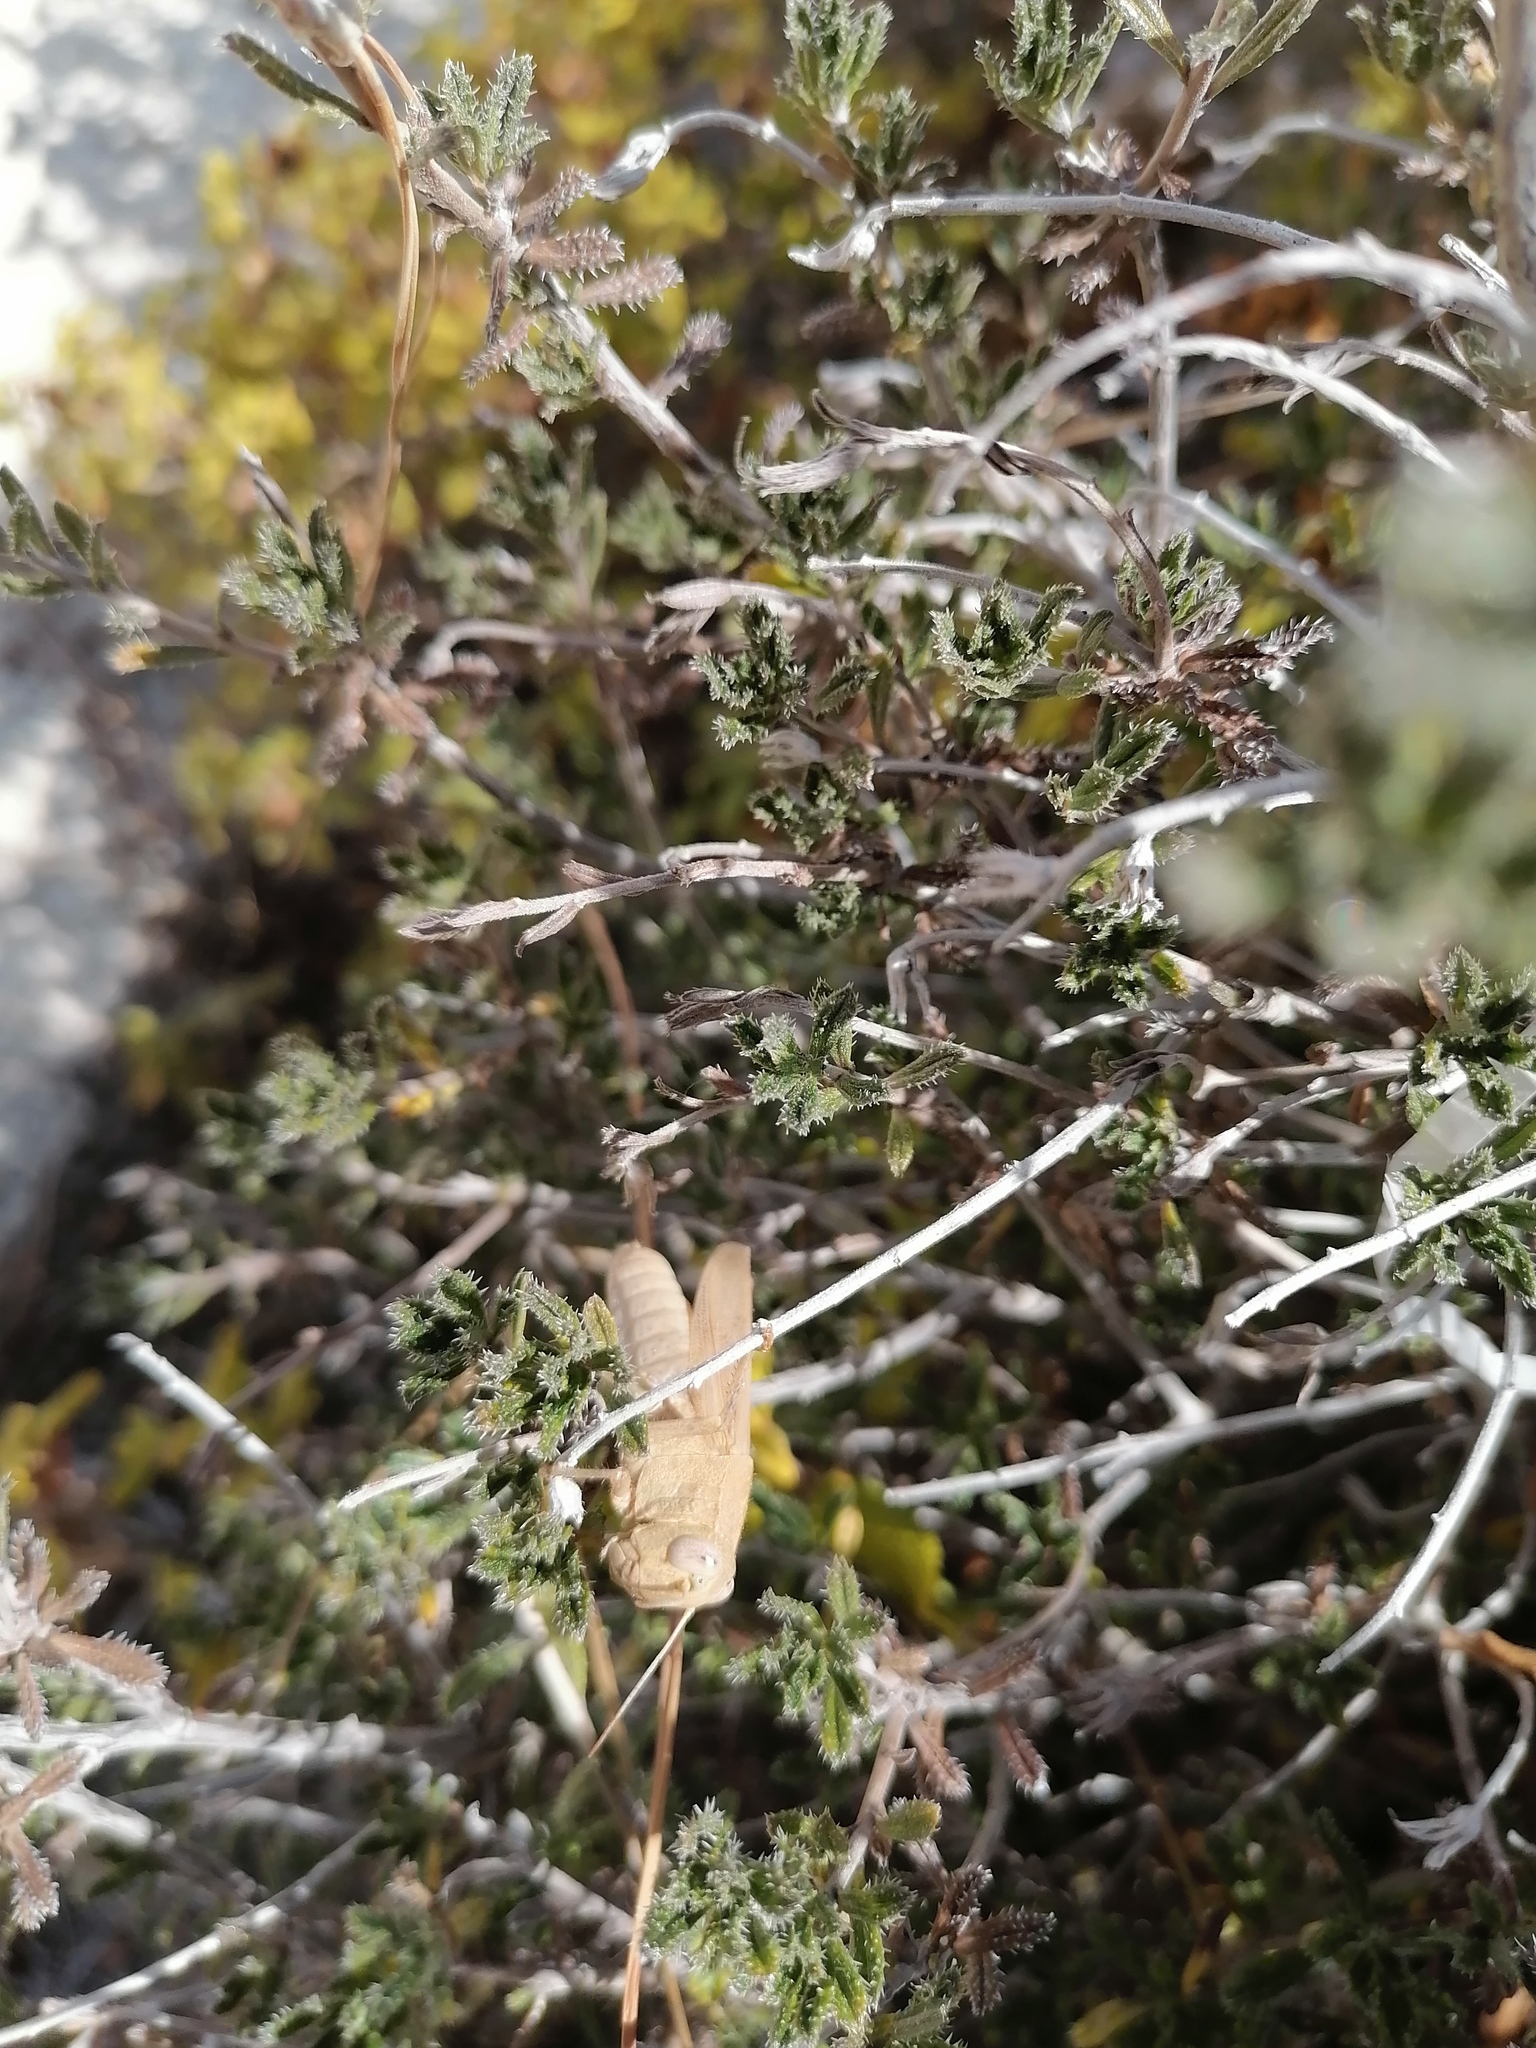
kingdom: Animalia
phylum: Arthropoda
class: Insecta
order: Orthoptera
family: Acrididae
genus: Calliptamus
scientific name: Calliptamus
